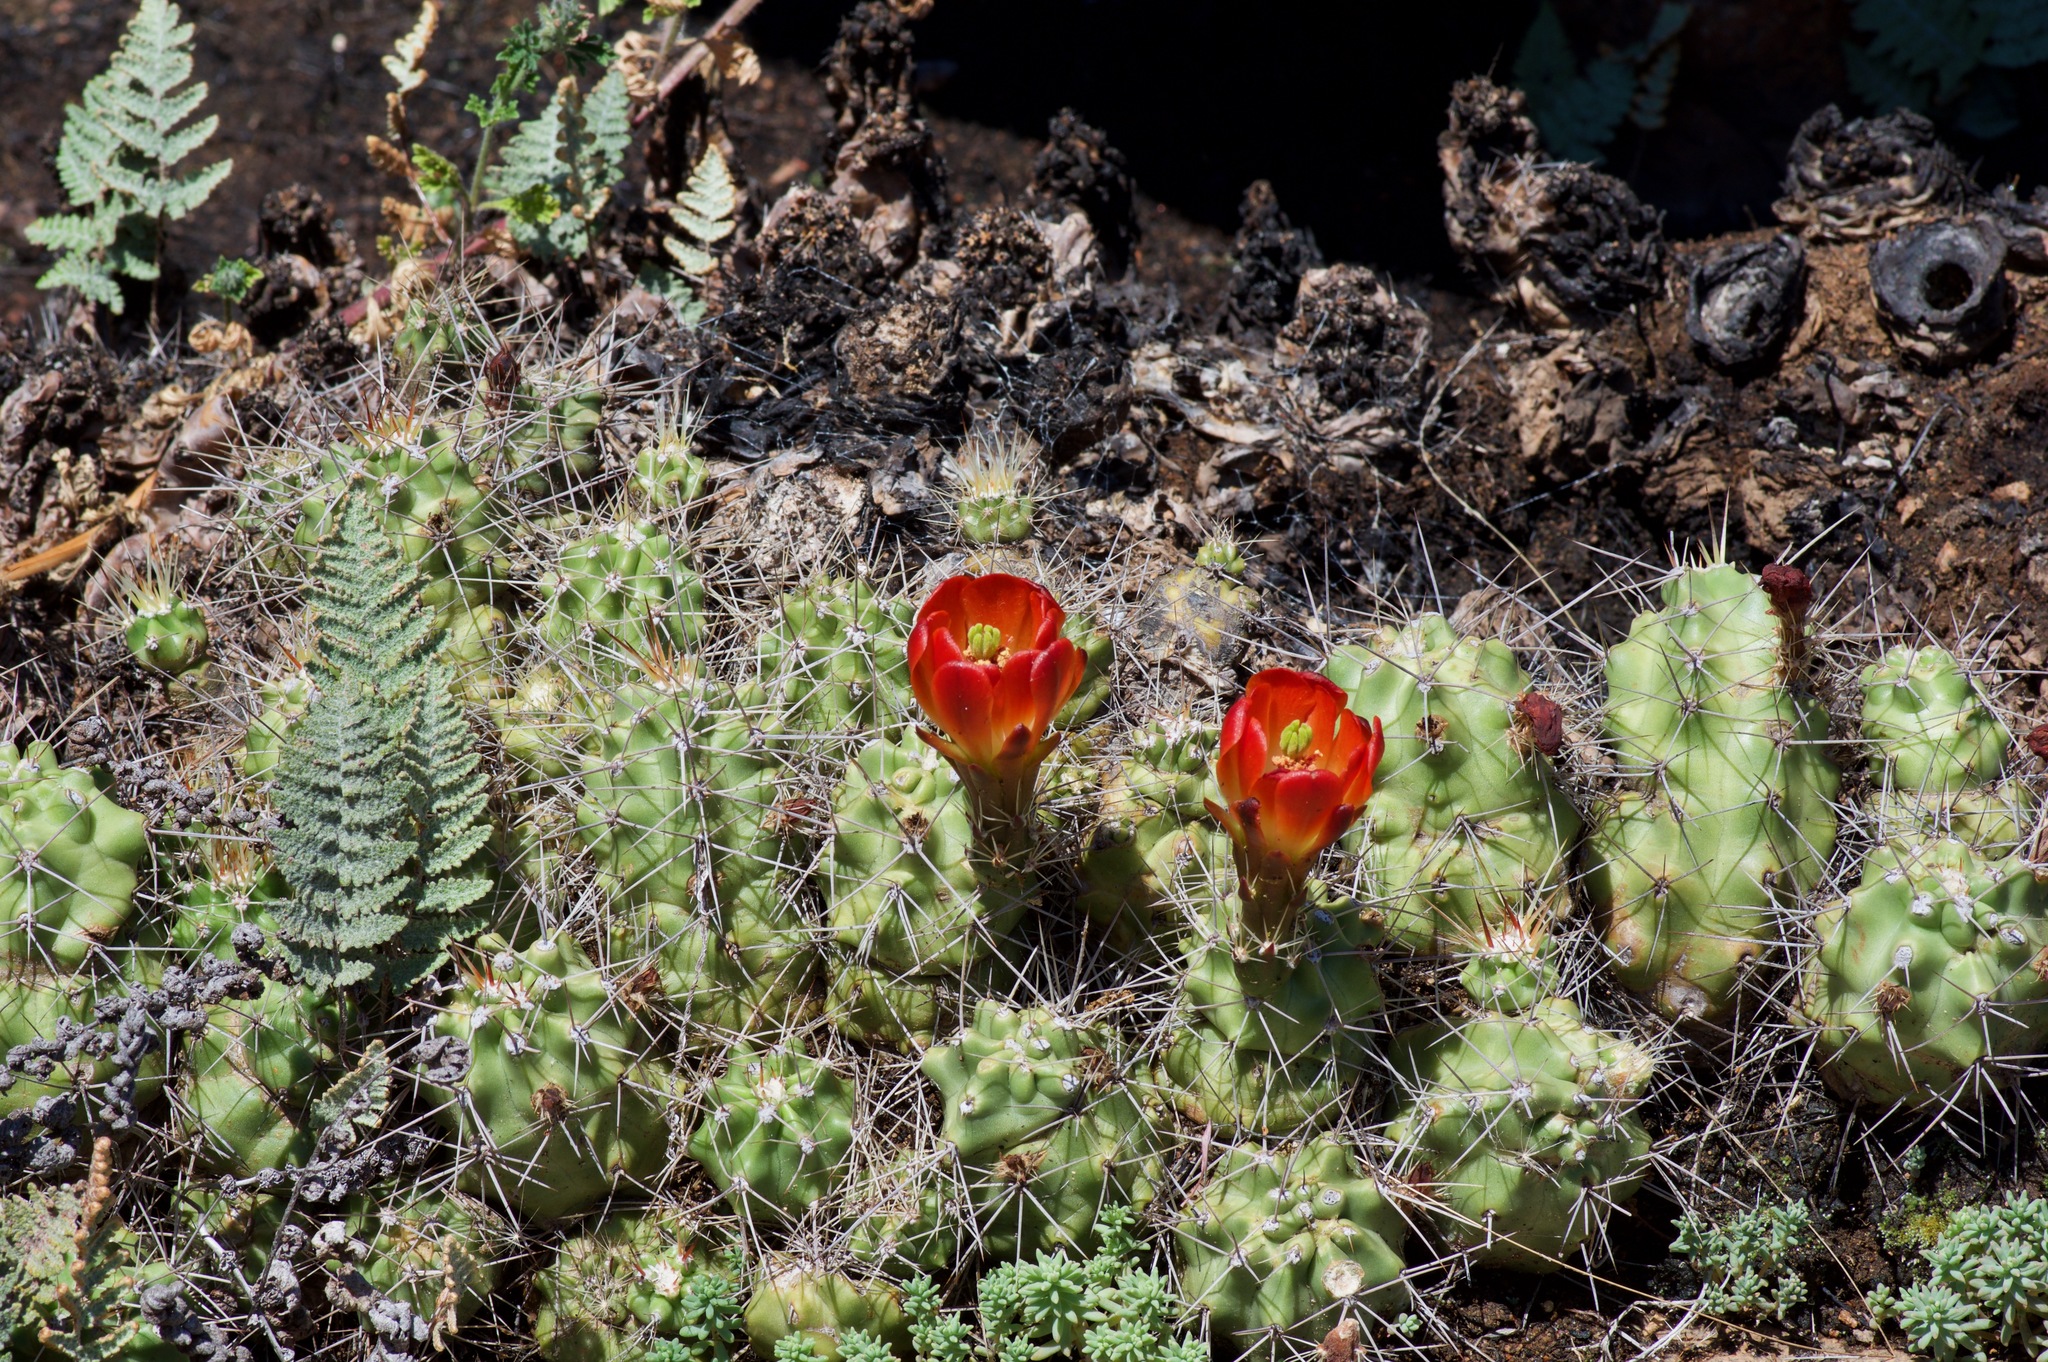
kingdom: Plantae
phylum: Tracheophyta
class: Magnoliopsida
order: Caryophyllales
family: Cactaceae
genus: Echinocereus
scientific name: Echinocereus coccineus
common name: Scarlet hedgehog cactus
